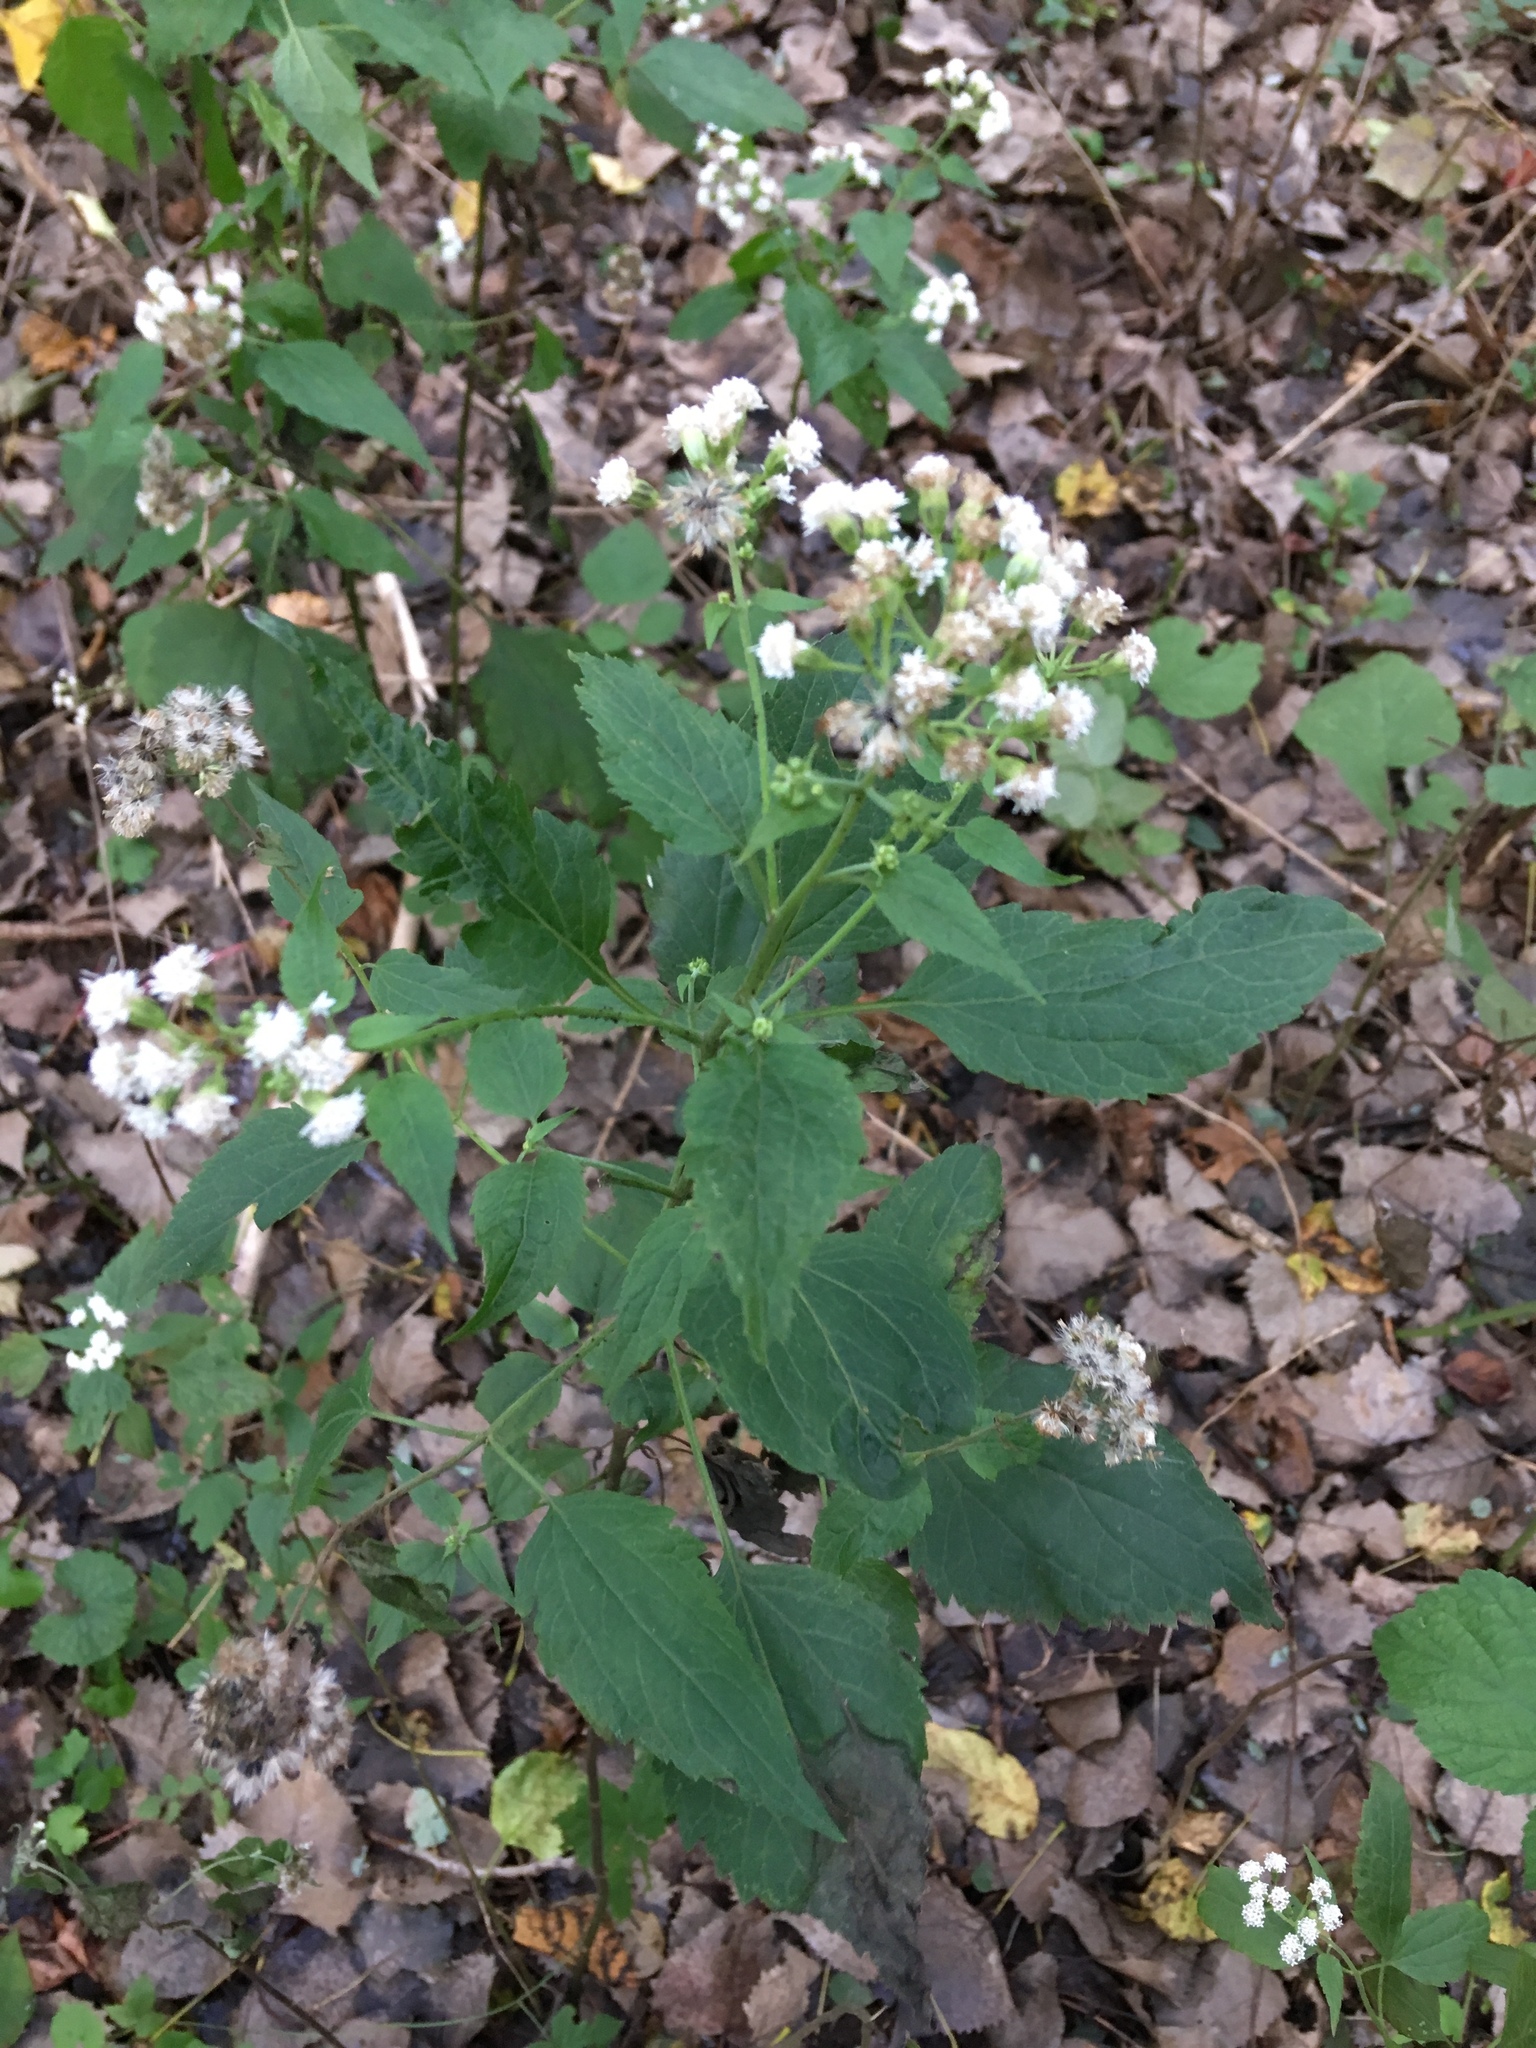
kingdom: Plantae
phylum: Tracheophyta
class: Magnoliopsida
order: Asterales
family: Asteraceae
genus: Ageratina
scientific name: Ageratina altissima
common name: White snakeroot
